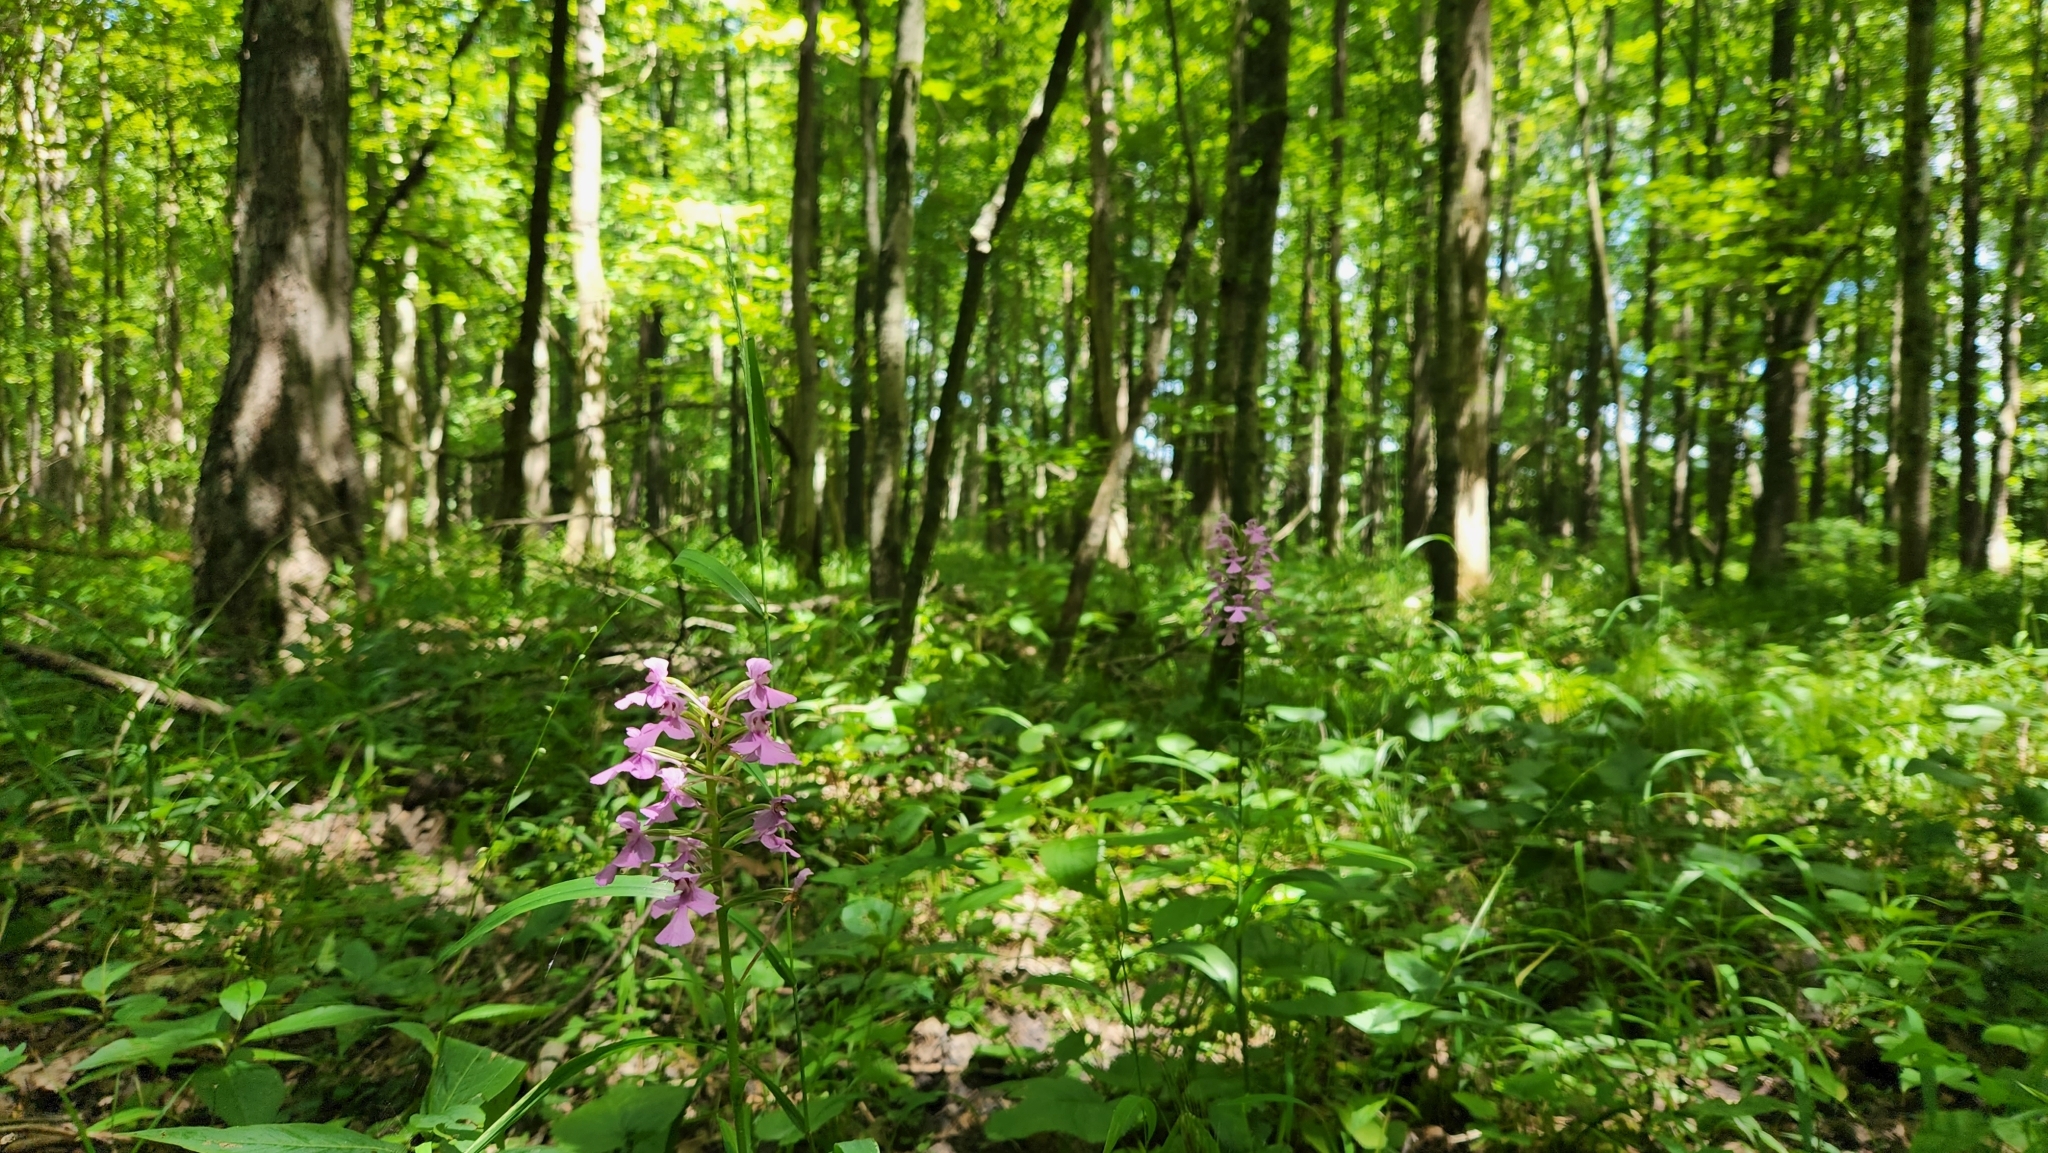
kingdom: Plantae
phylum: Tracheophyta
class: Liliopsida
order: Asparagales
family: Orchidaceae
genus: Platanthera
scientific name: Platanthera peramoena
